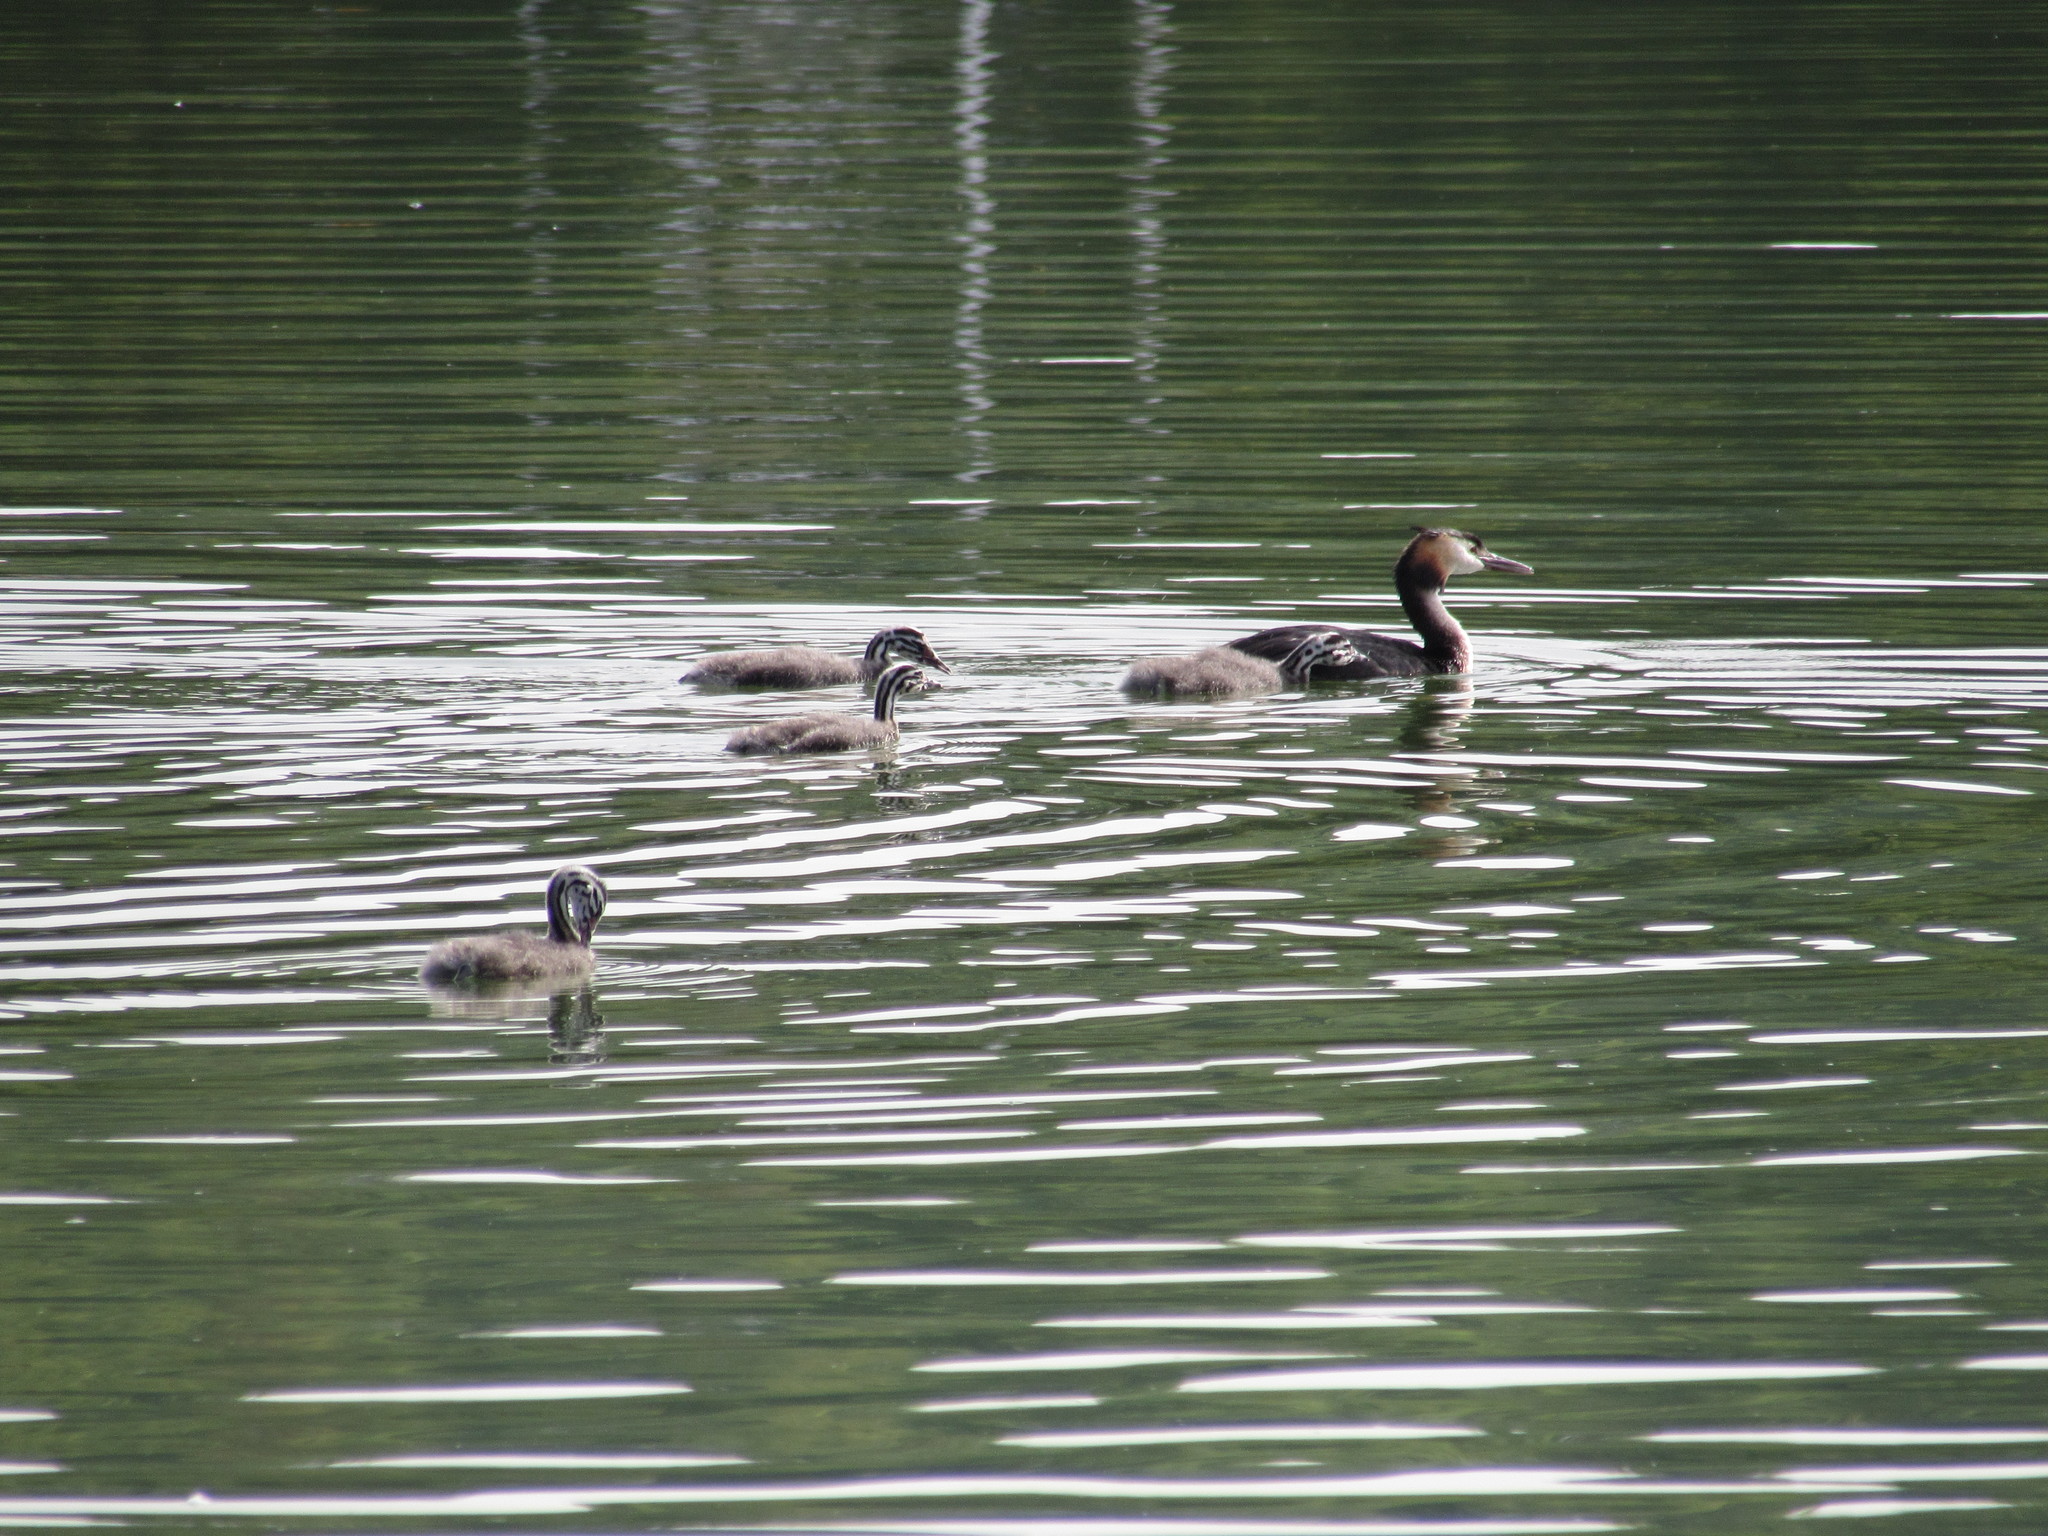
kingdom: Animalia
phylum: Chordata
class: Aves
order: Podicipediformes
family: Podicipedidae
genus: Podiceps
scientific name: Podiceps cristatus
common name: Great crested grebe
